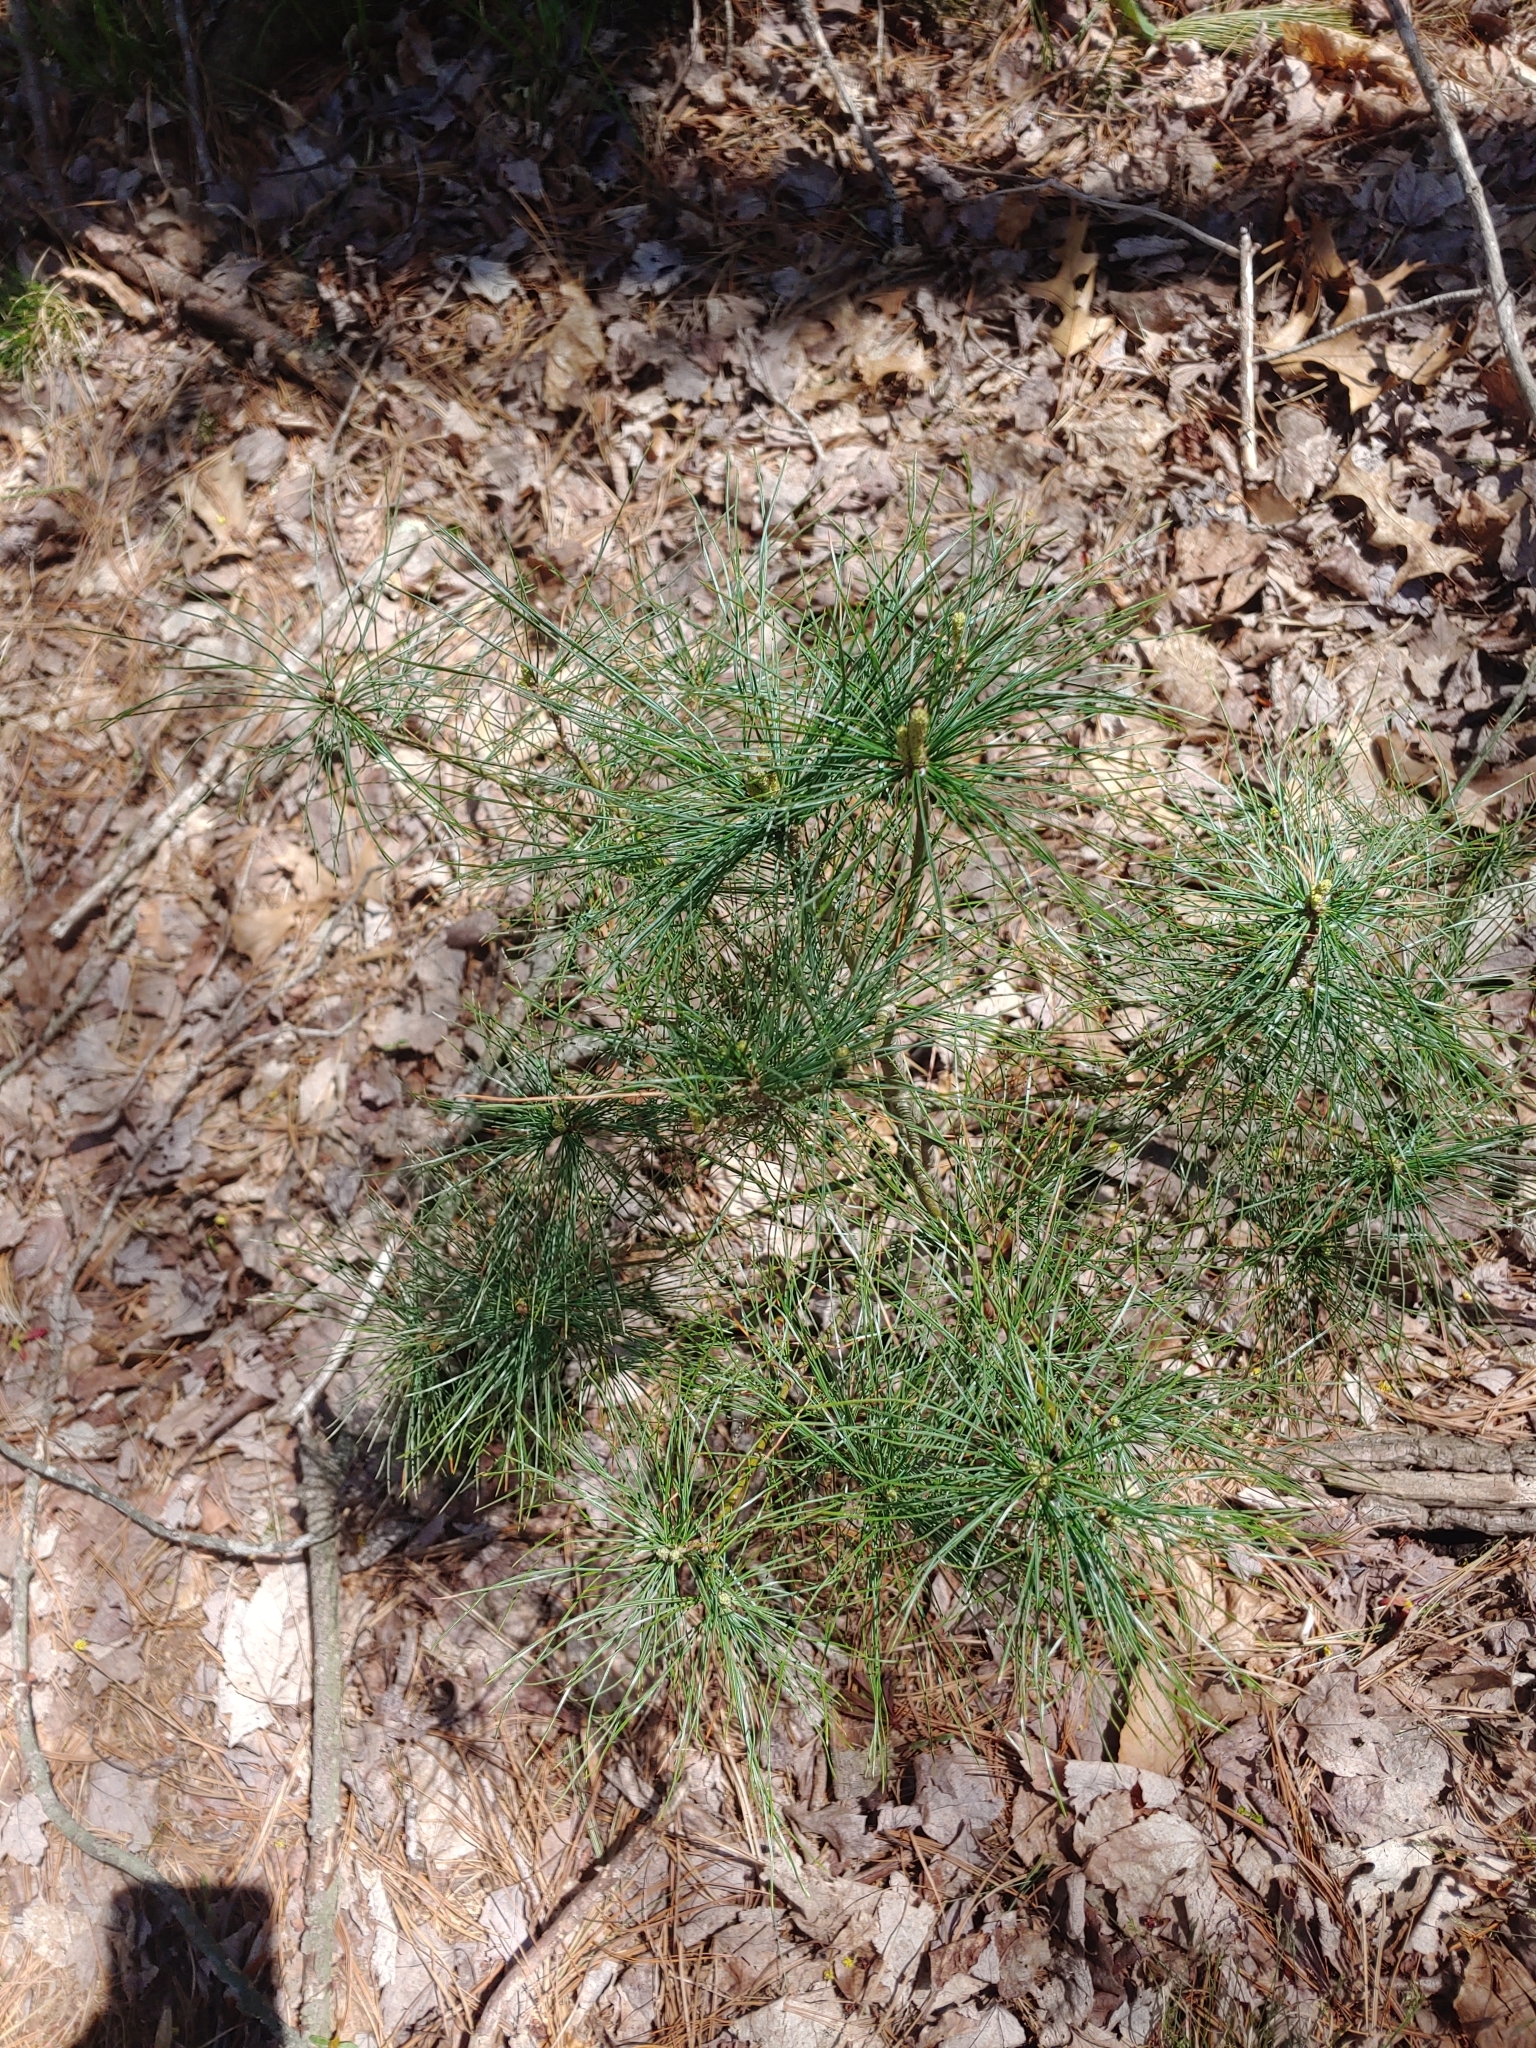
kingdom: Plantae
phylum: Tracheophyta
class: Pinopsida
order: Pinales
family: Pinaceae
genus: Pinus
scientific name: Pinus strobus
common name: Weymouth pine
